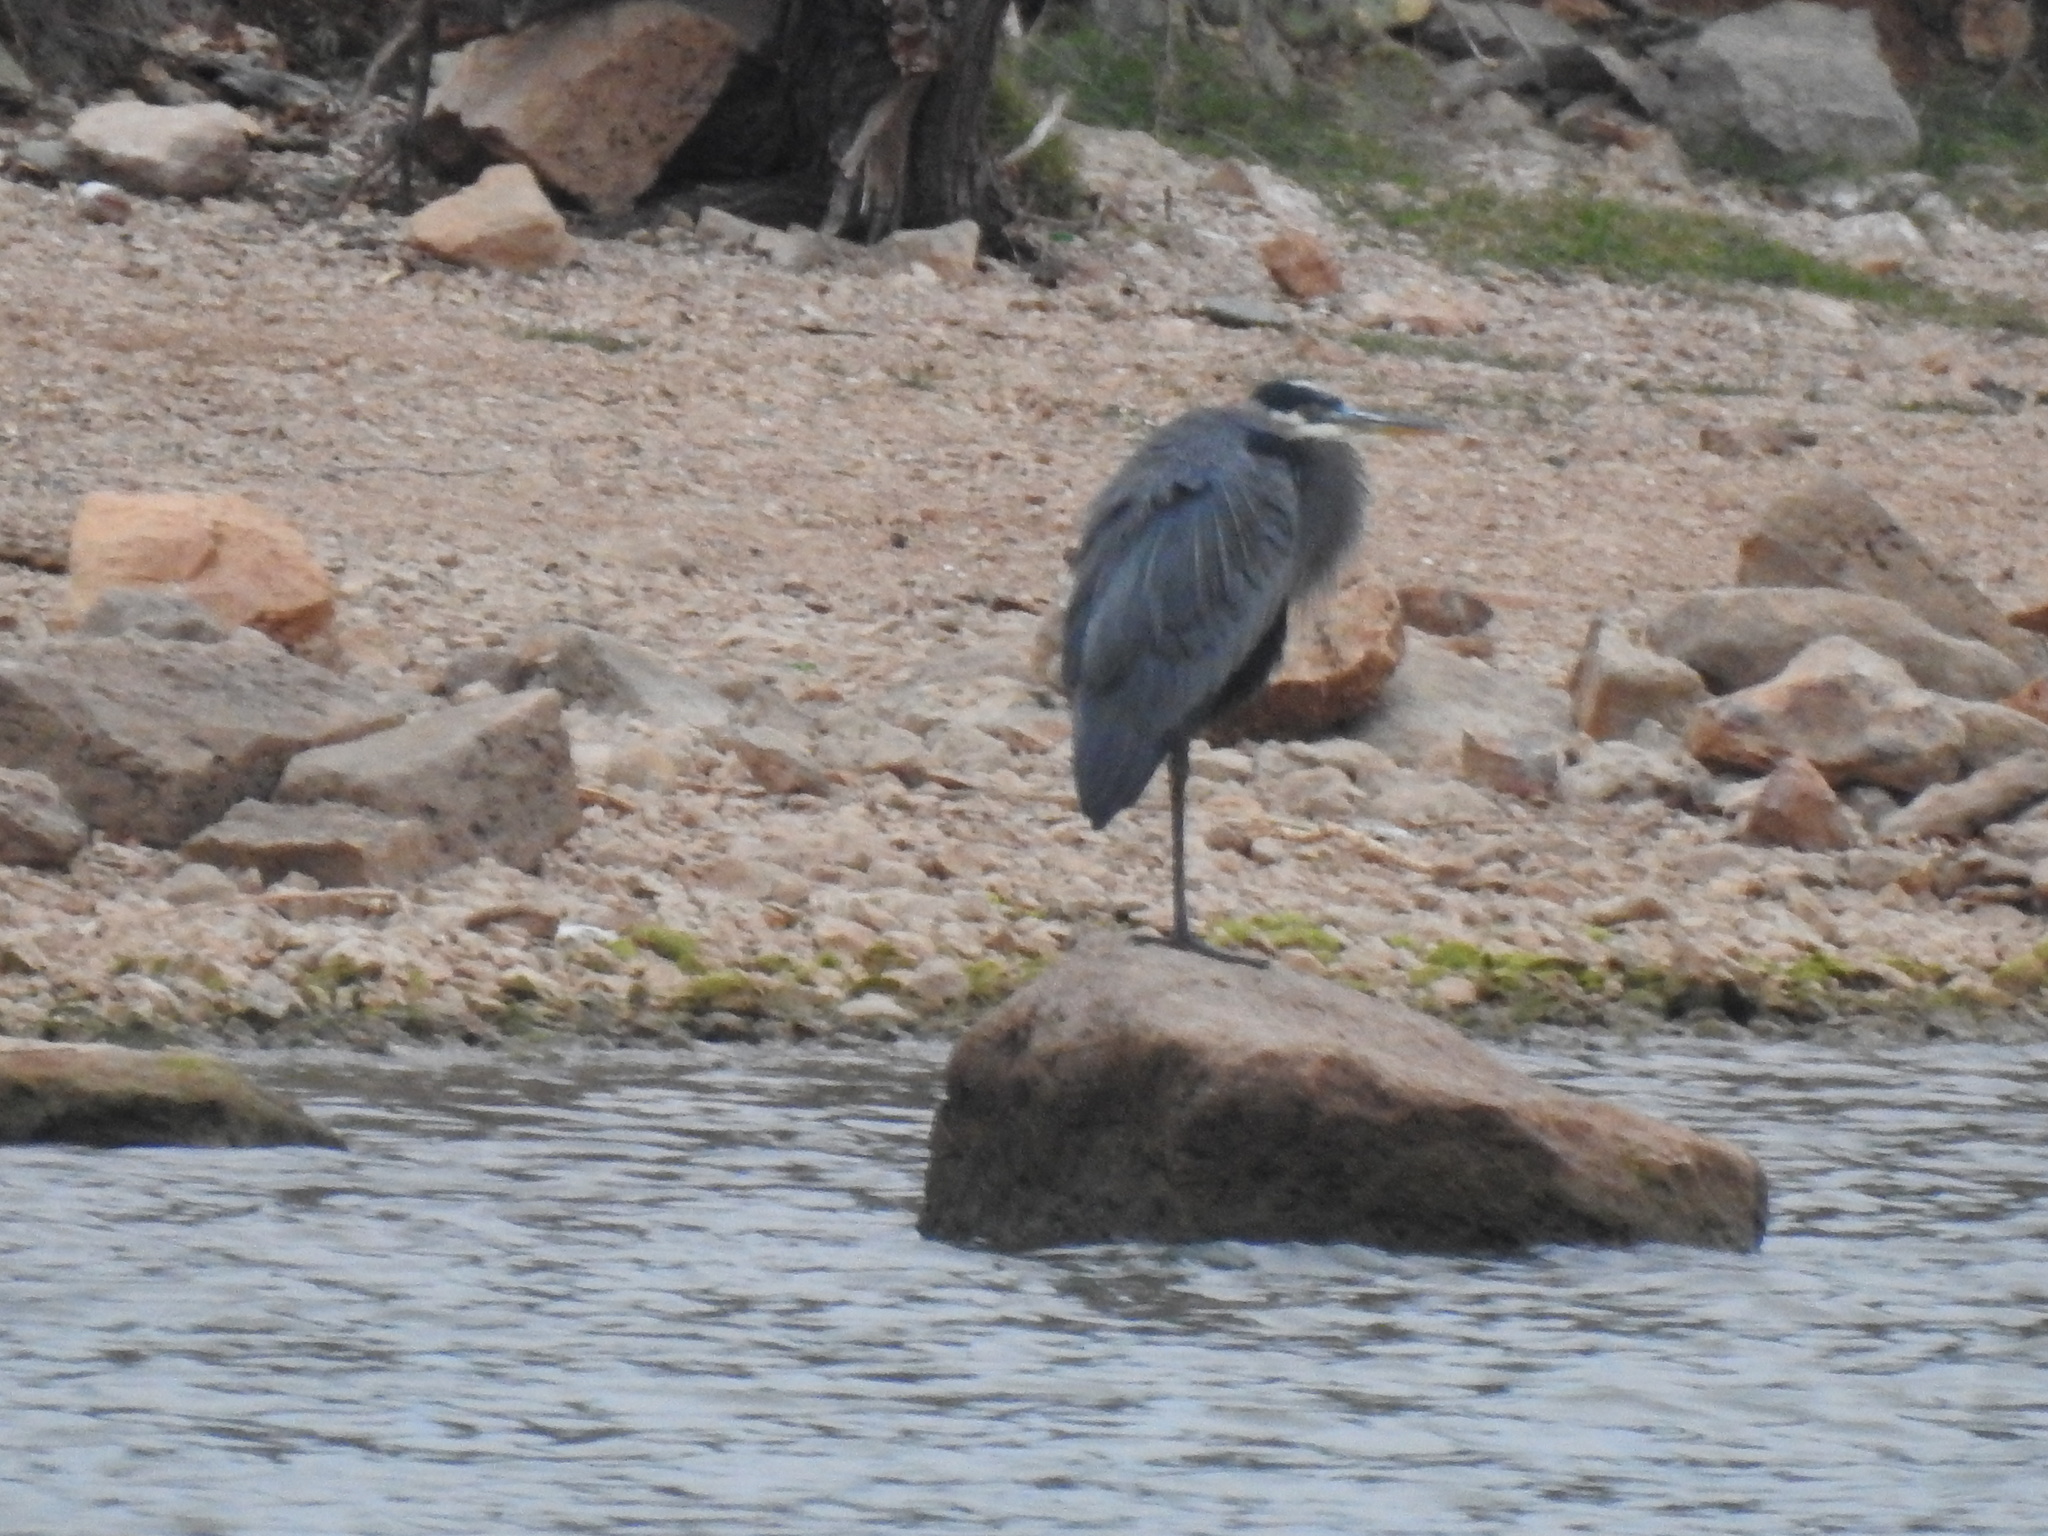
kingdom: Animalia
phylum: Chordata
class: Aves
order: Pelecaniformes
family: Ardeidae
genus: Ardea
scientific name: Ardea herodias
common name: Great blue heron
